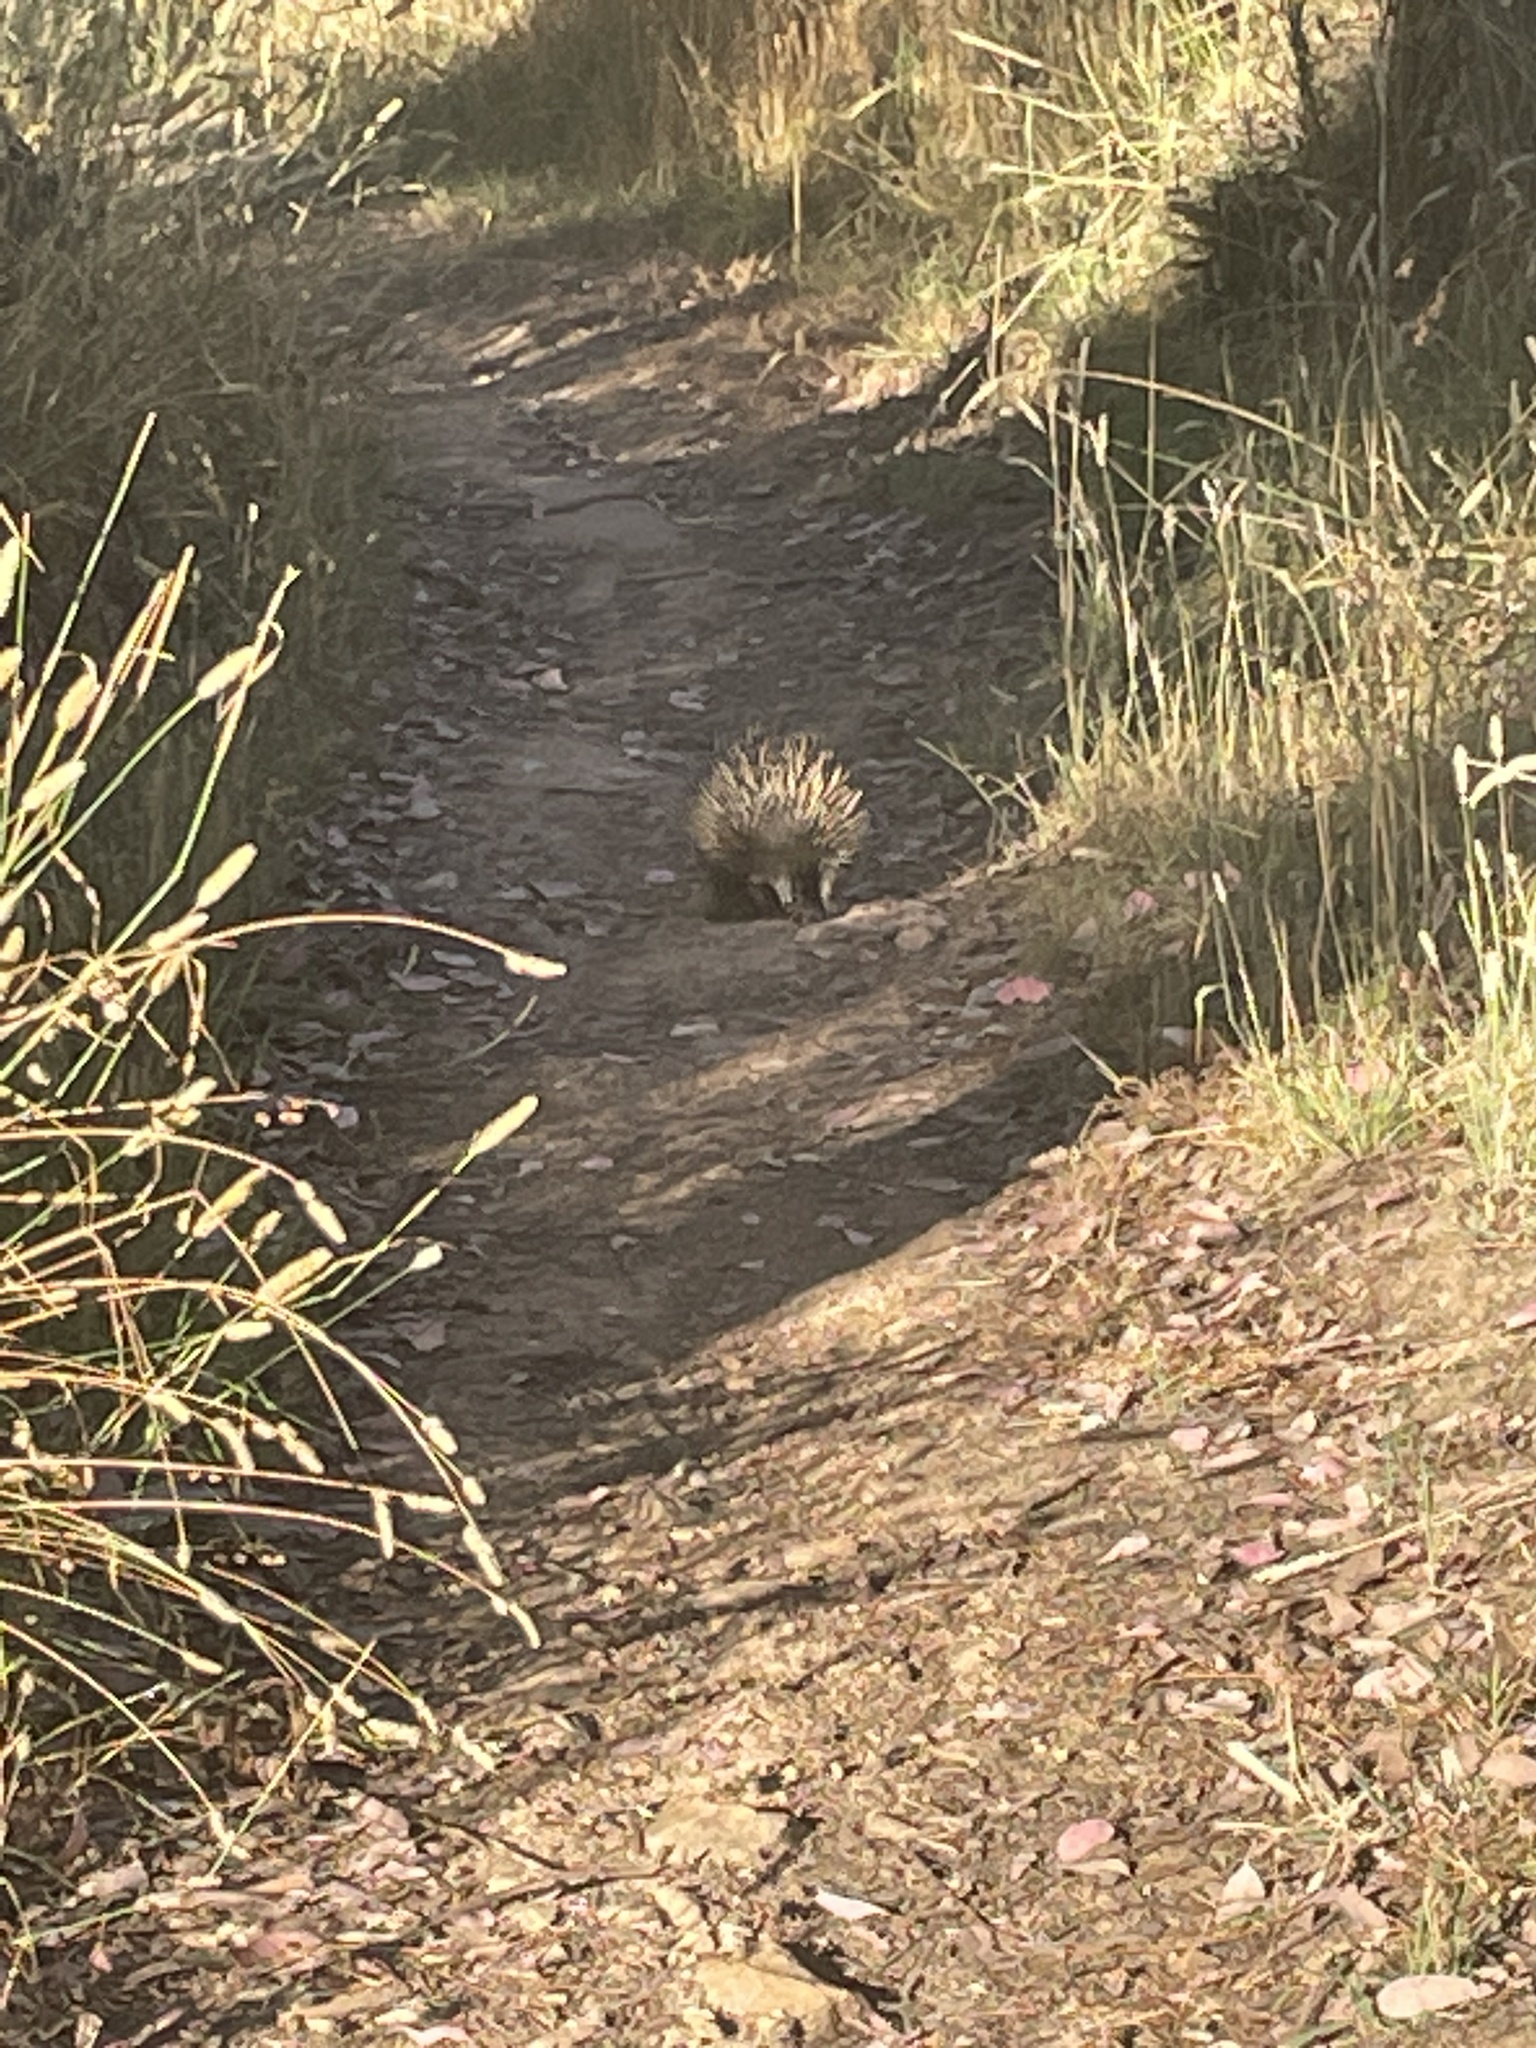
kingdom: Animalia
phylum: Chordata
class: Mammalia
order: Monotremata
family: Tachyglossidae
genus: Tachyglossus
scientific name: Tachyglossus aculeatus
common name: Short-beaked echidna
